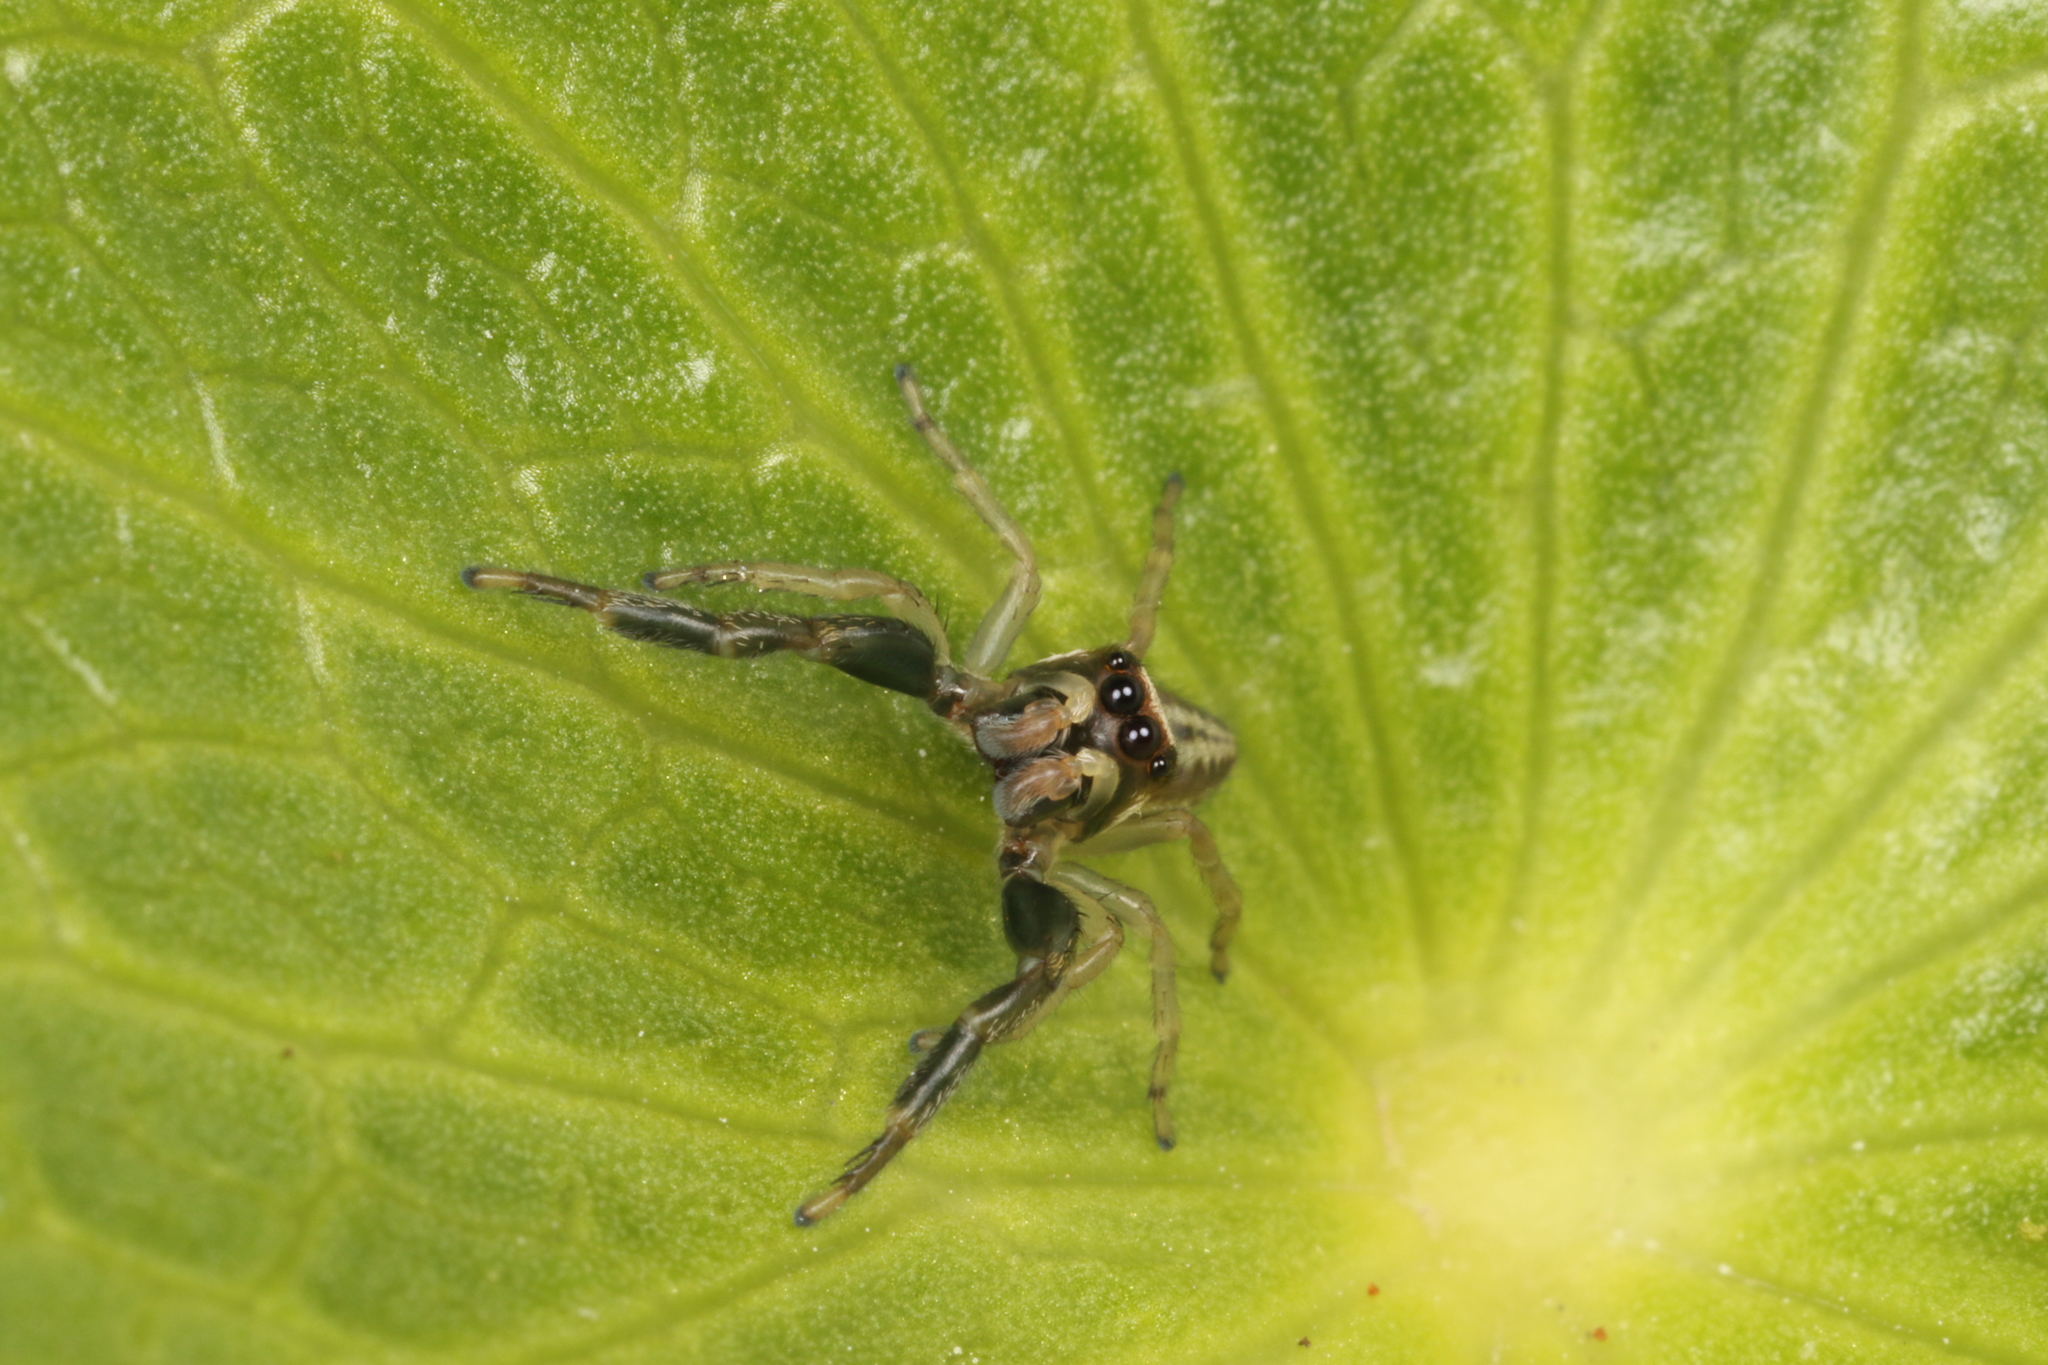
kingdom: Animalia
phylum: Arthropoda
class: Arachnida
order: Araneae
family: Salticidae
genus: Trite
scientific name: Trite mustilina
